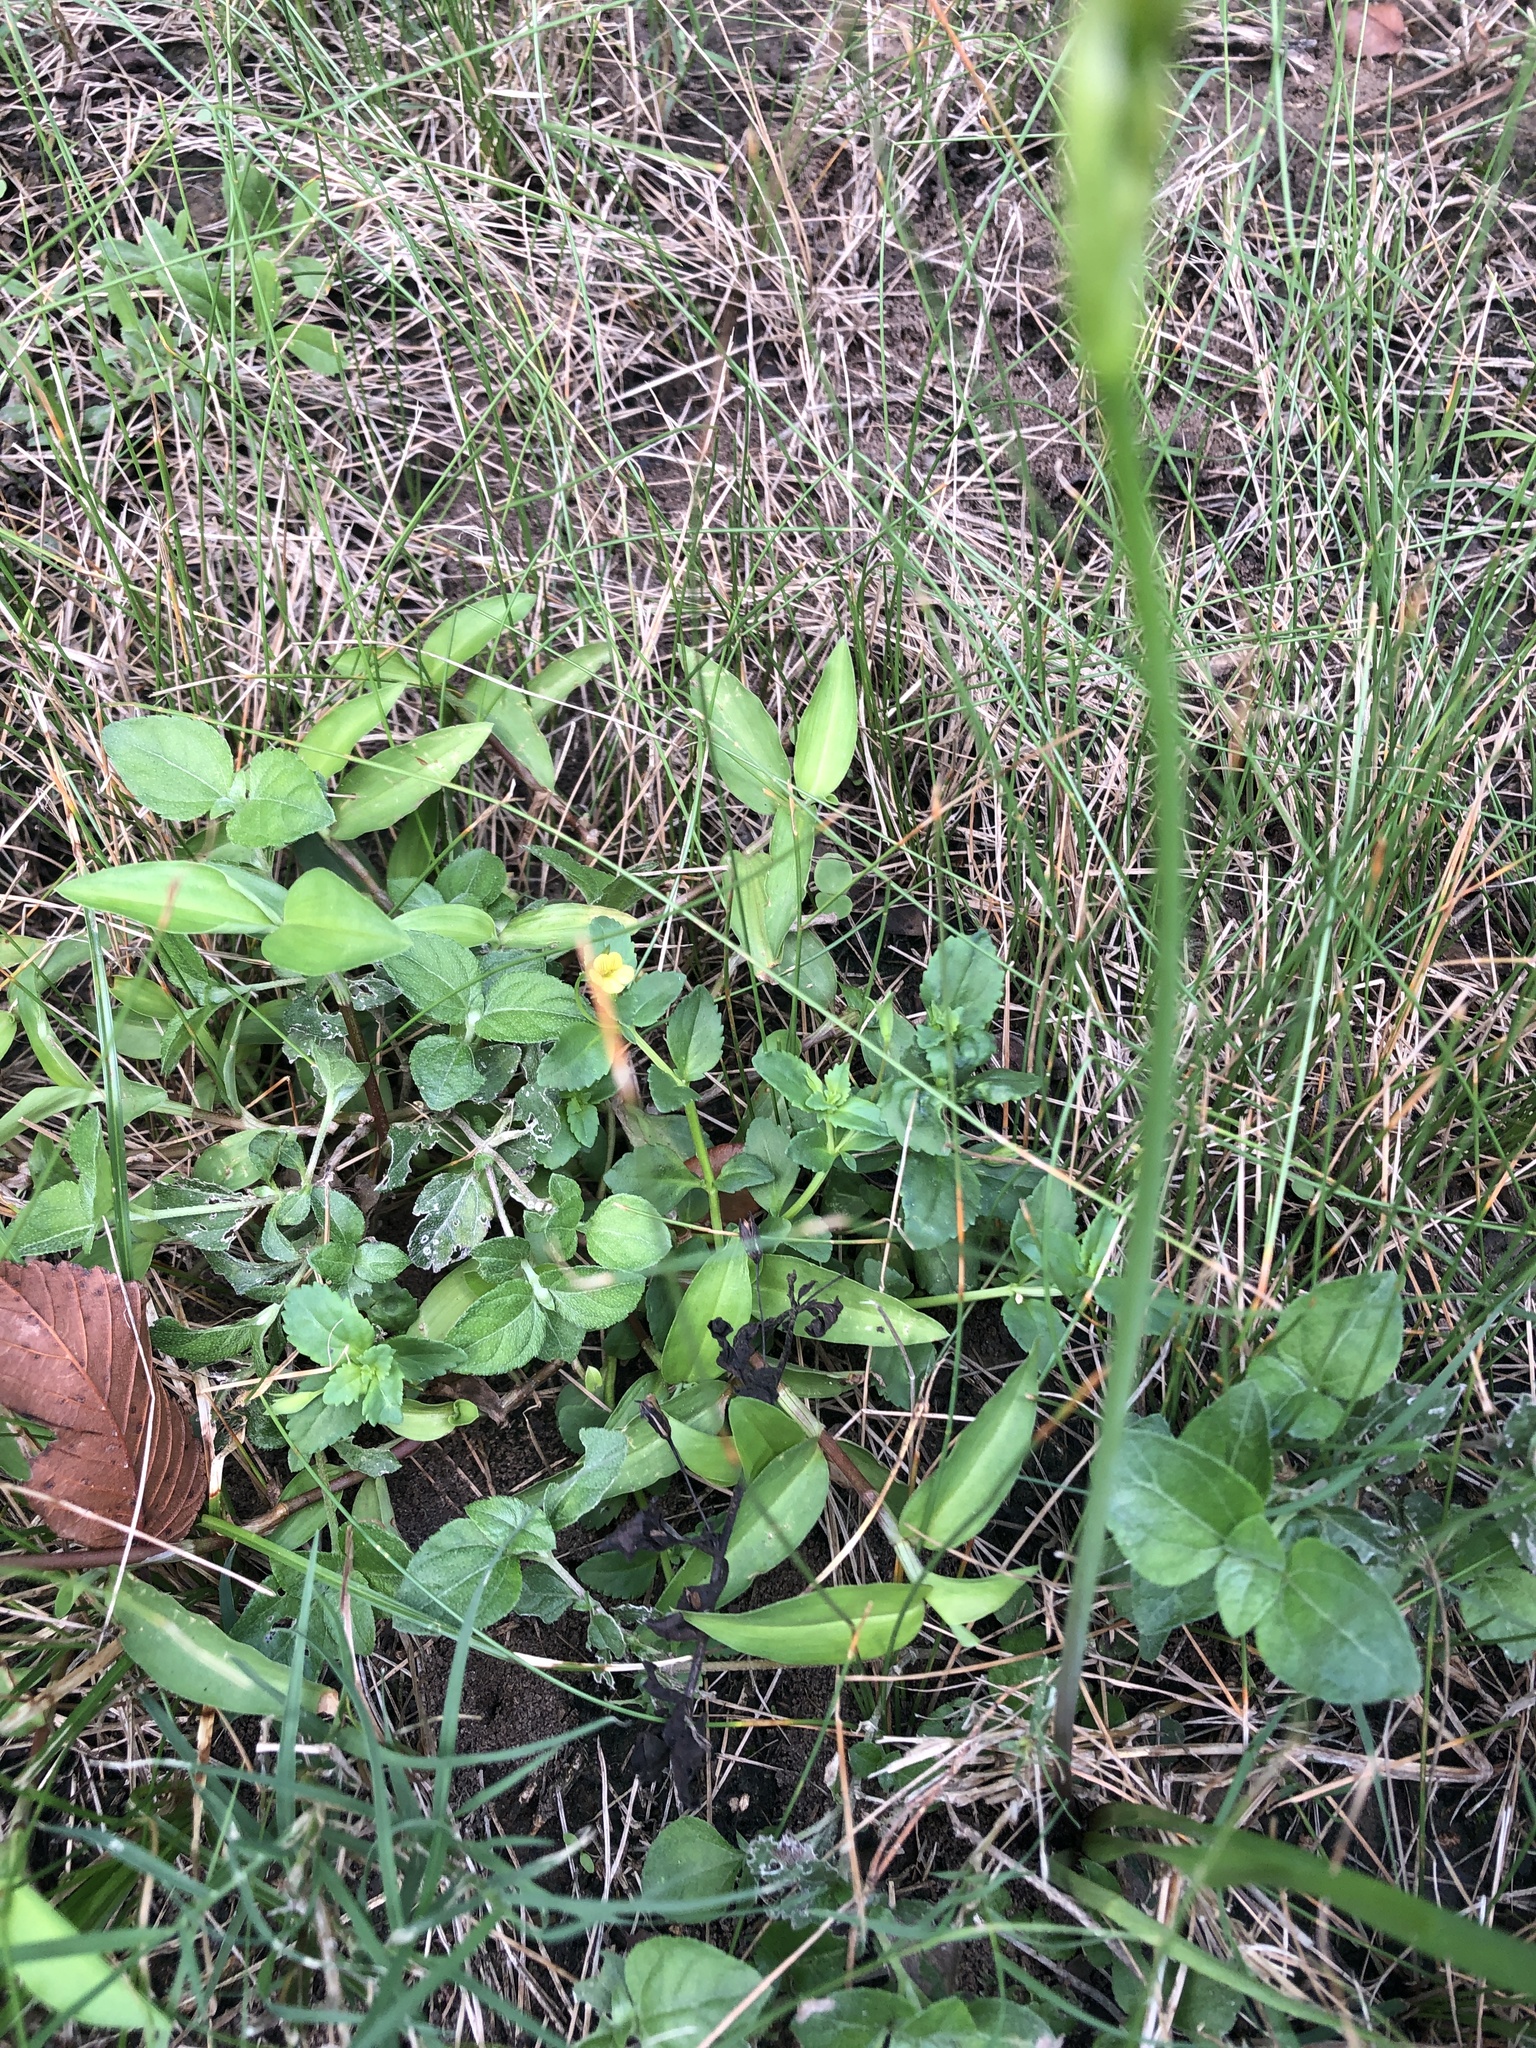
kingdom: Plantae
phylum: Tracheophyta
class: Magnoliopsida
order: Lamiales
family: Plantaginaceae
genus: Mecardonia
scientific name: Mecardonia procumbens
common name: Baby jump-up
